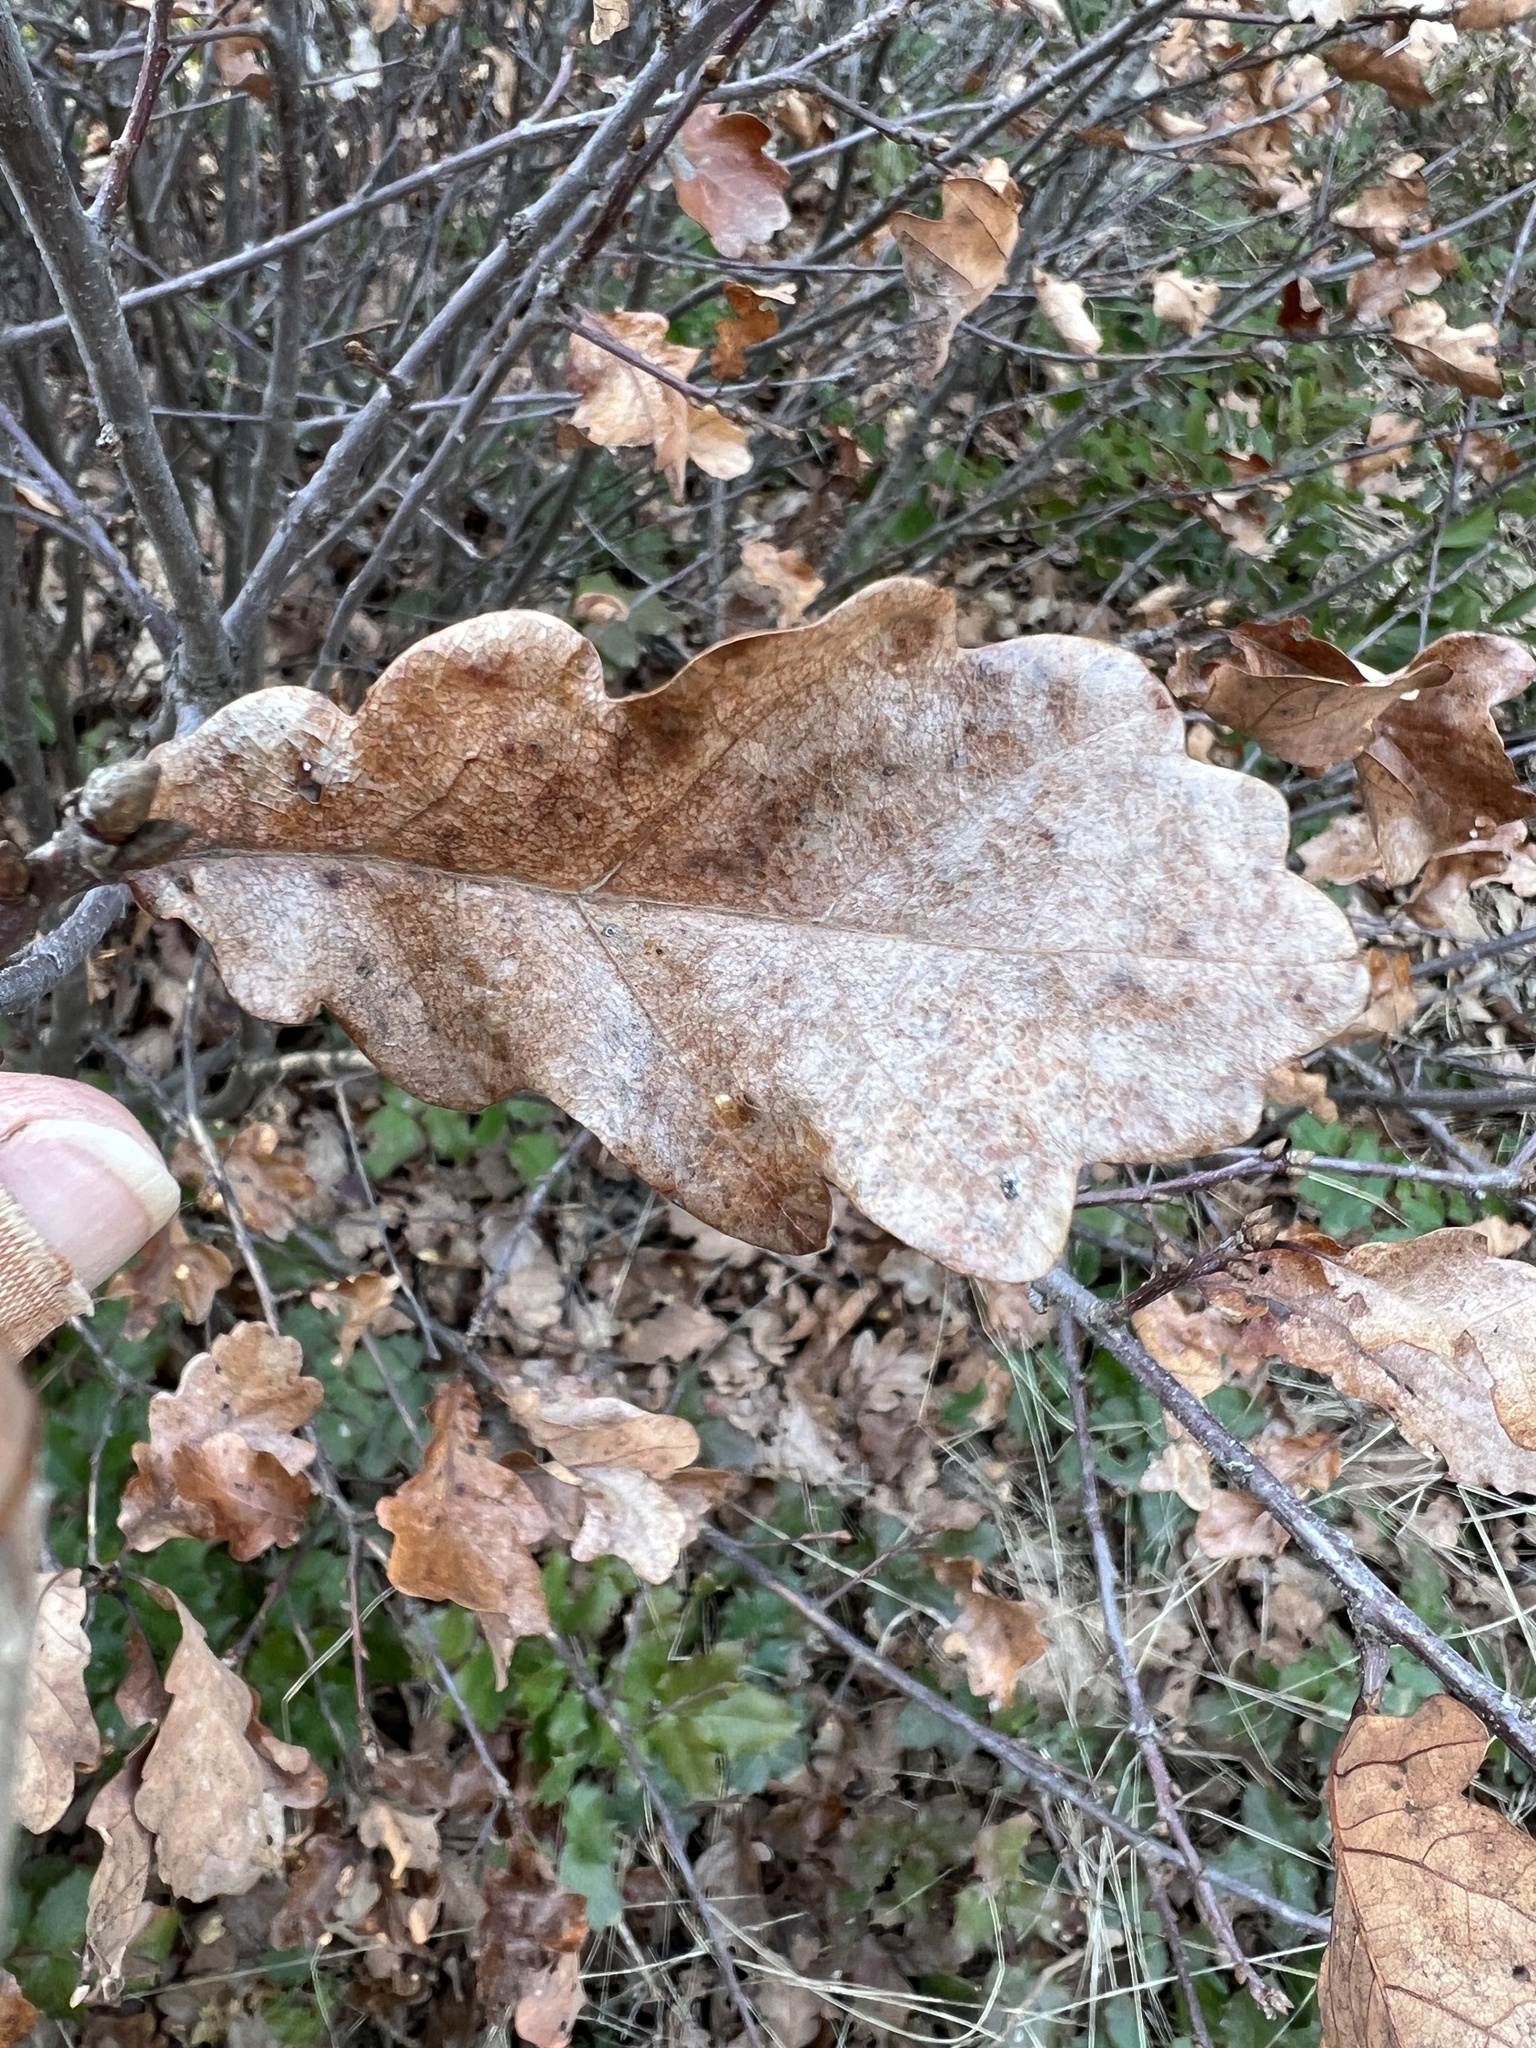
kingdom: Plantae
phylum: Tracheophyta
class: Magnoliopsida
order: Fagales
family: Fagaceae
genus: Quercus
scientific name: Quercus
